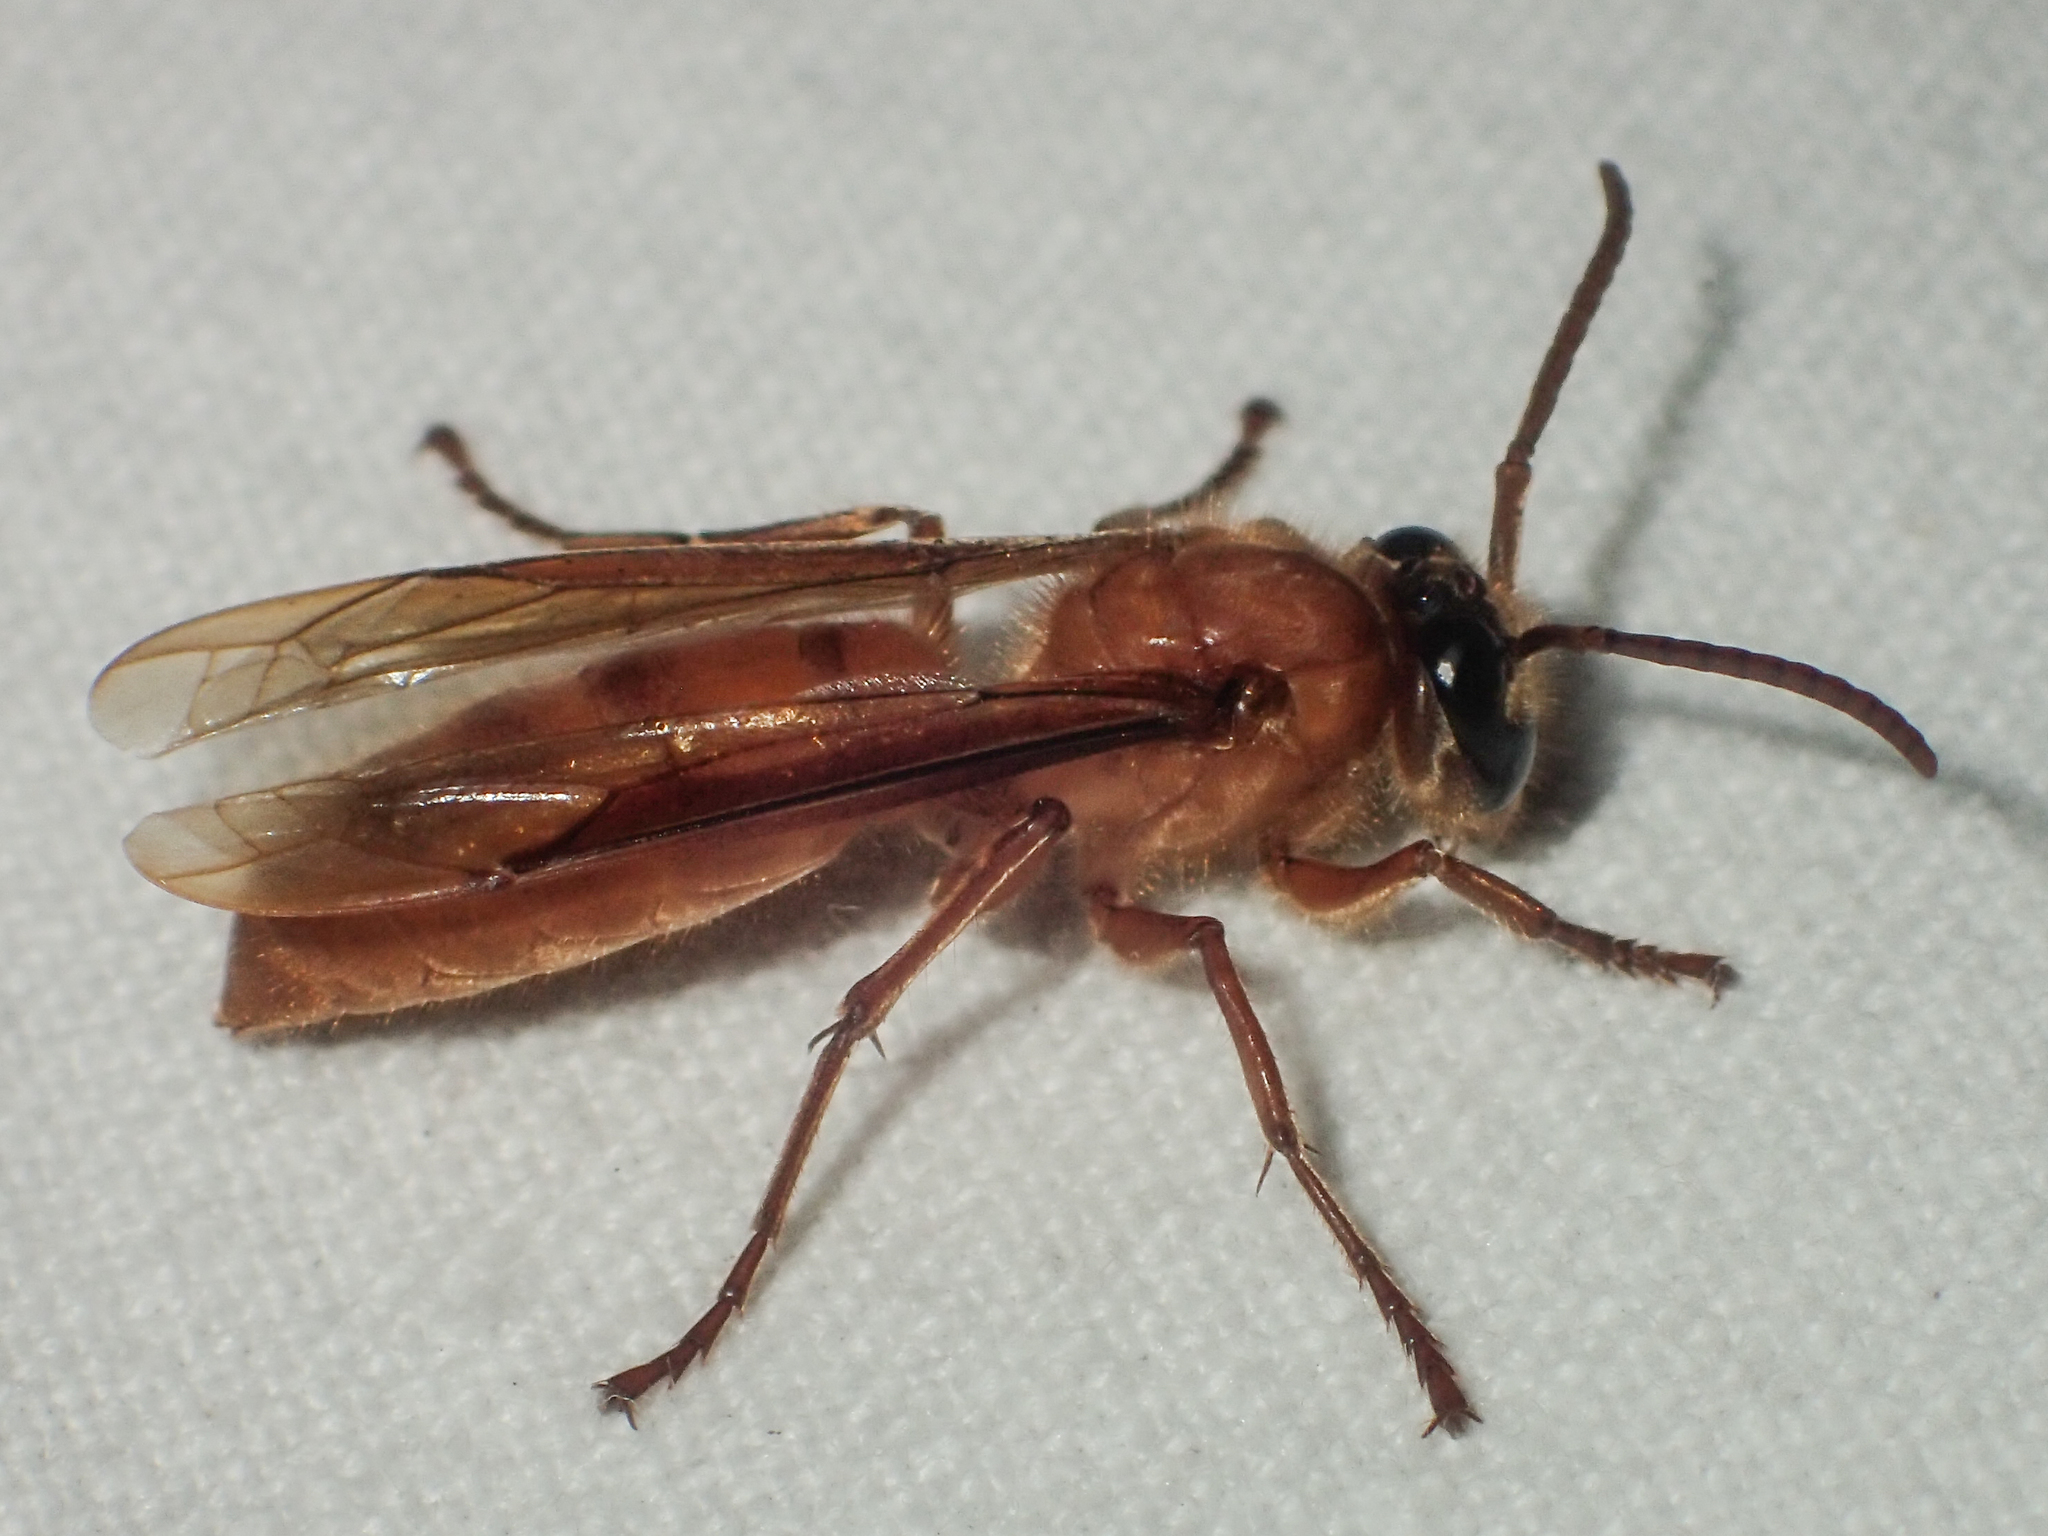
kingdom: Animalia
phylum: Arthropoda
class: Insecta
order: Hymenoptera
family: Vespidae
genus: Provespa
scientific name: Provespa barthelemyi
